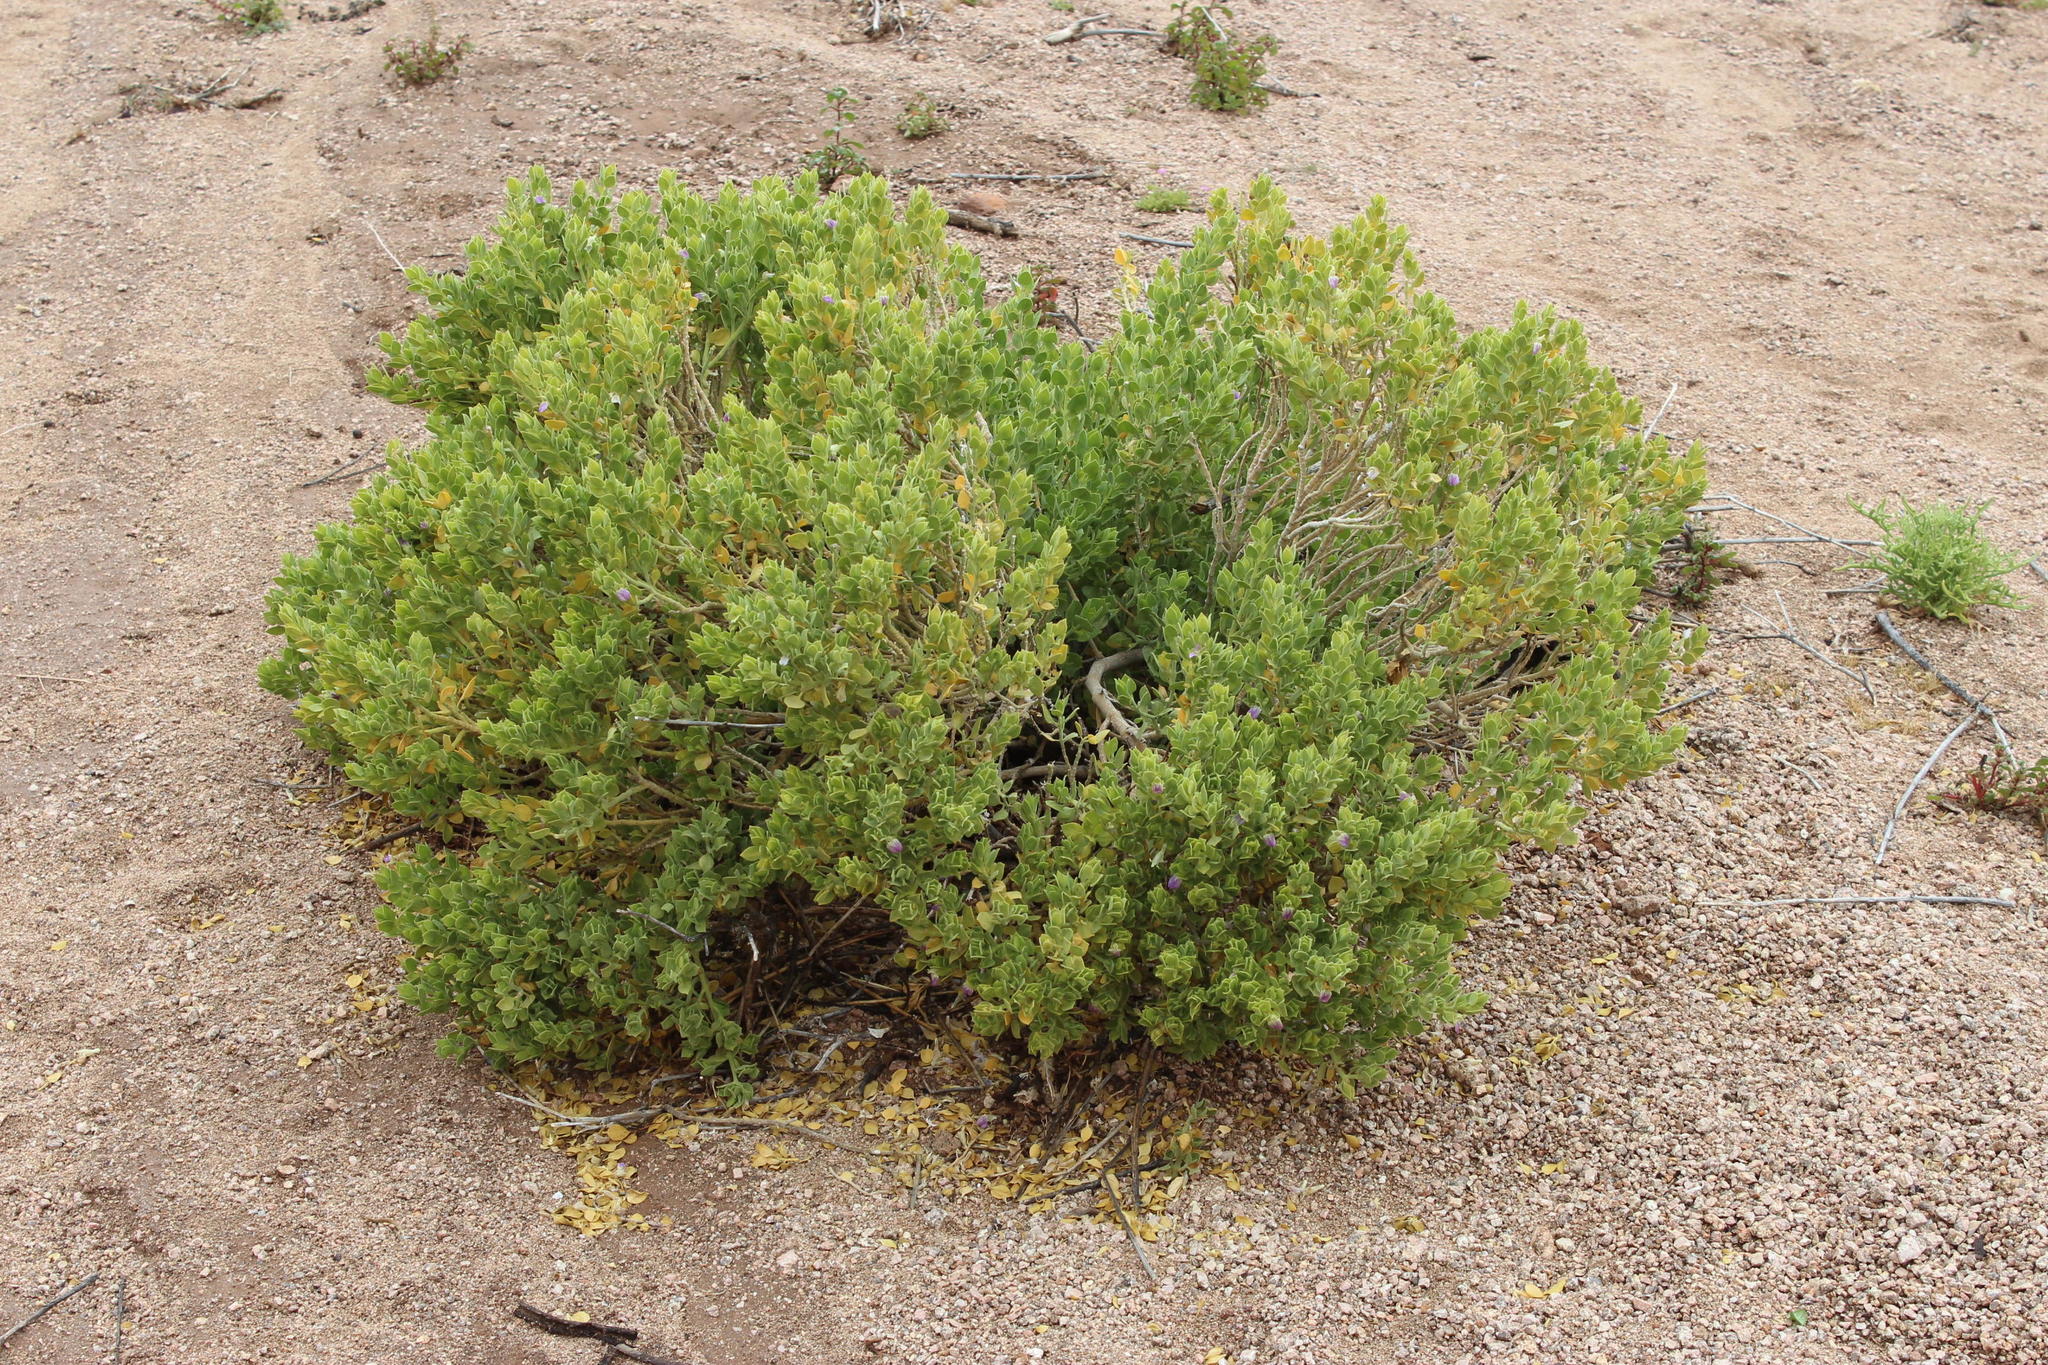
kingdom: Plantae
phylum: Tracheophyta
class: Magnoliopsida
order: Lamiales
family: Acanthaceae
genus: Pogonospermum
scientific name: Pogonospermum
